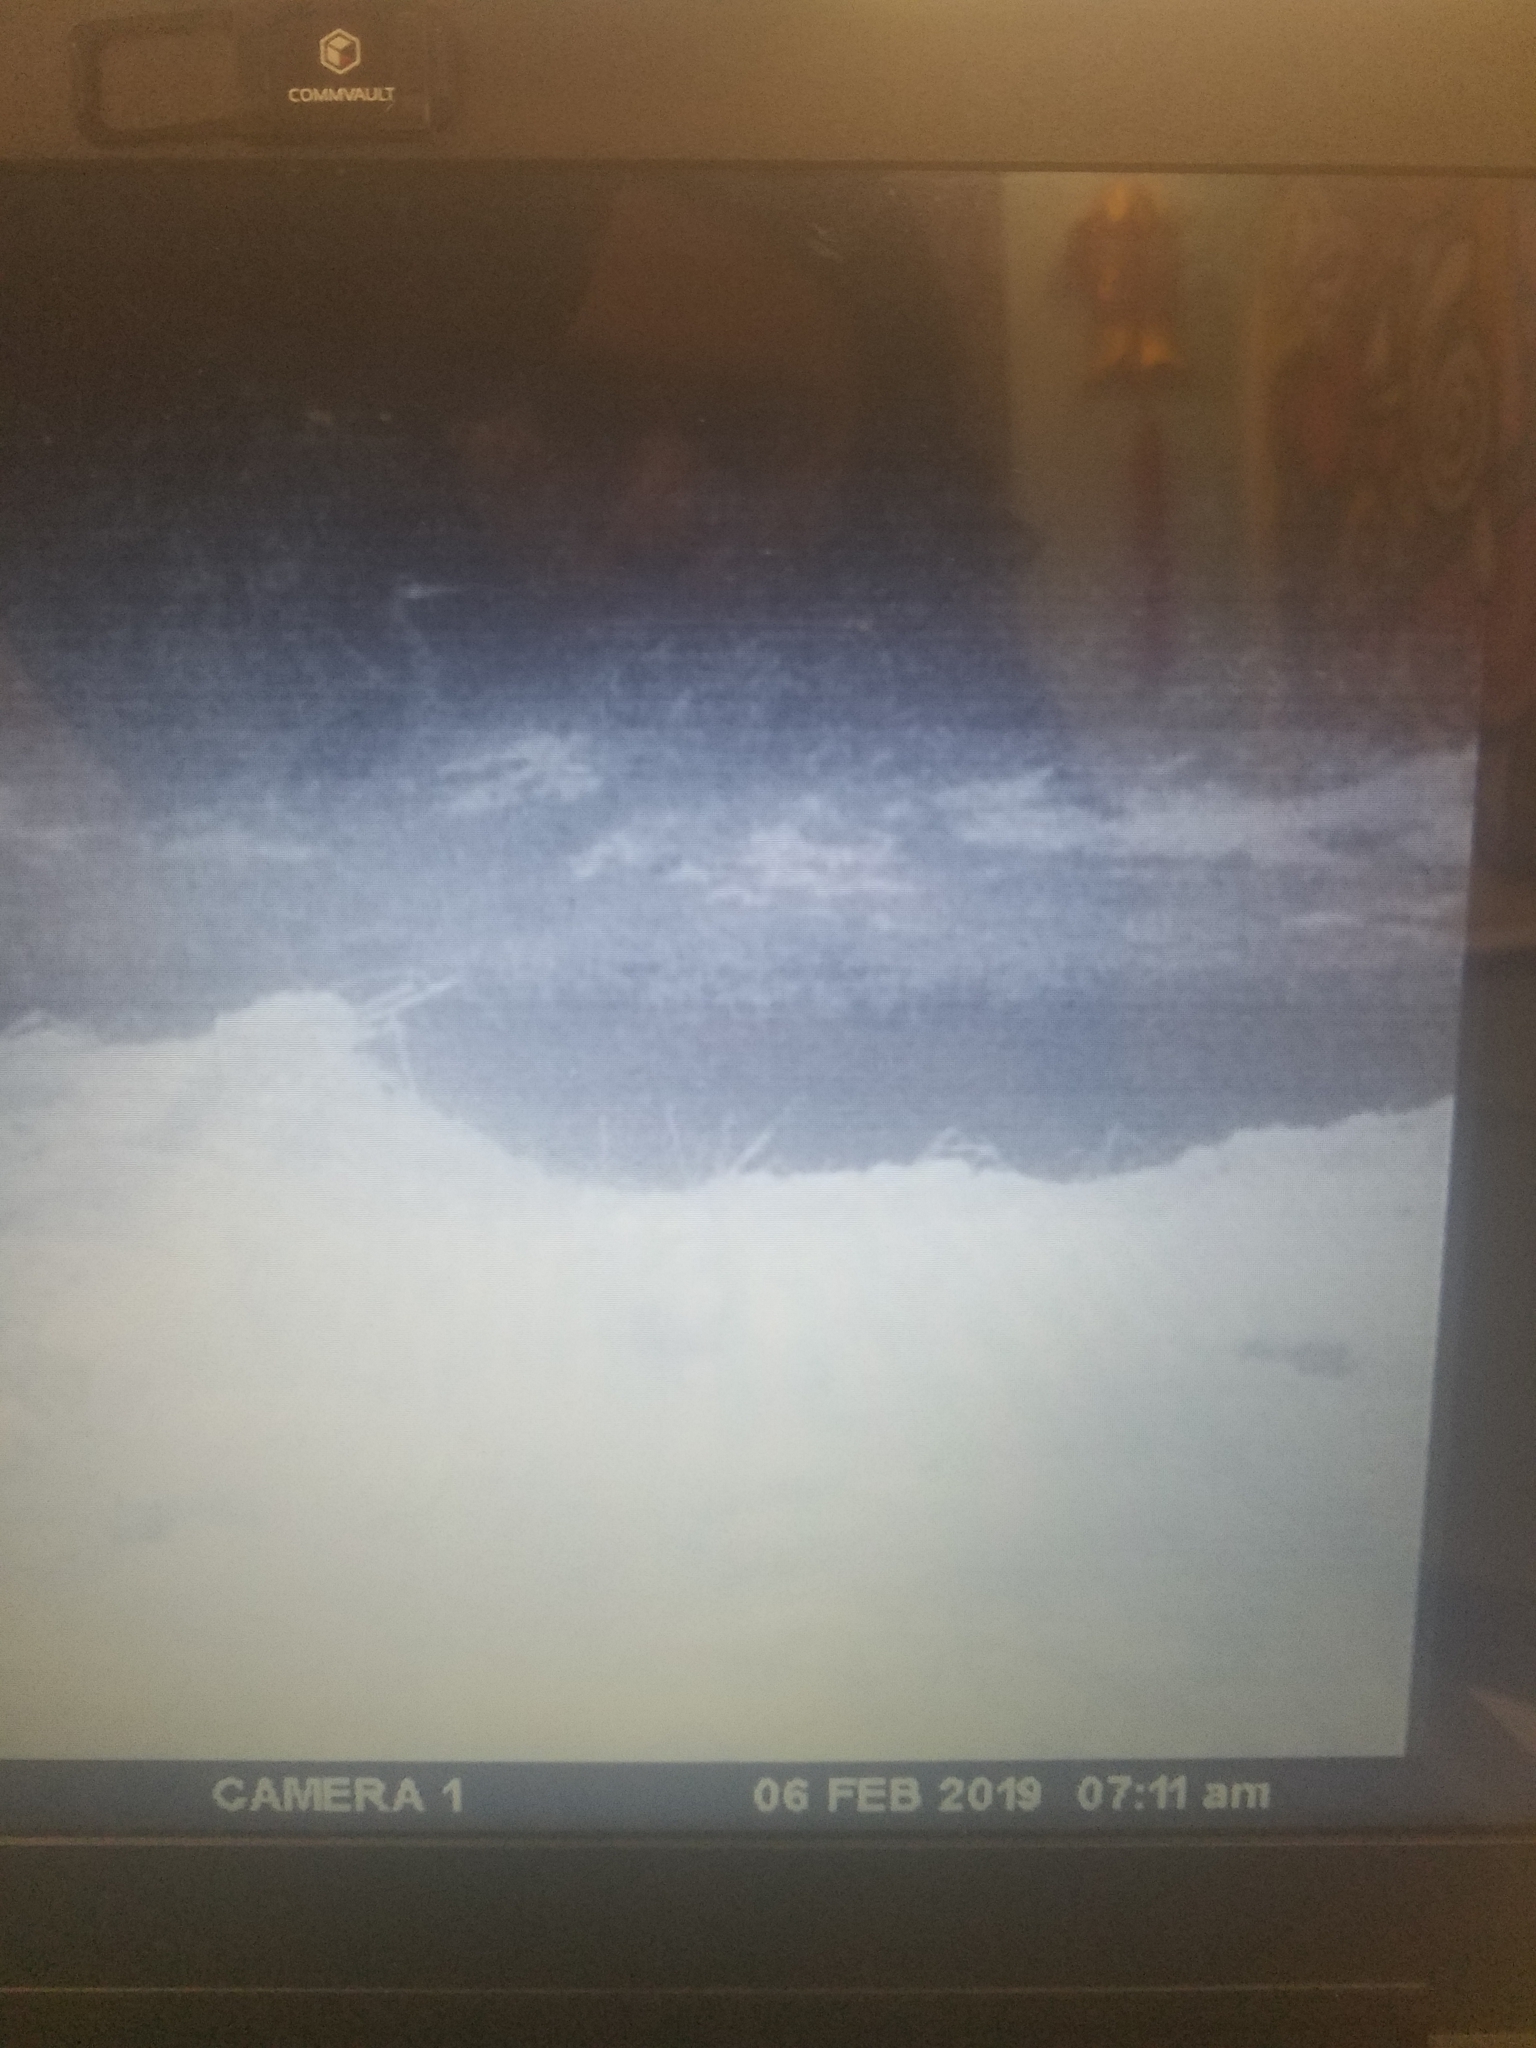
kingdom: Animalia
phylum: Chordata
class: Aves
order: Pelecaniformes
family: Ardeidae
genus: Ardea
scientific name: Ardea herodias
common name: Great blue heron
